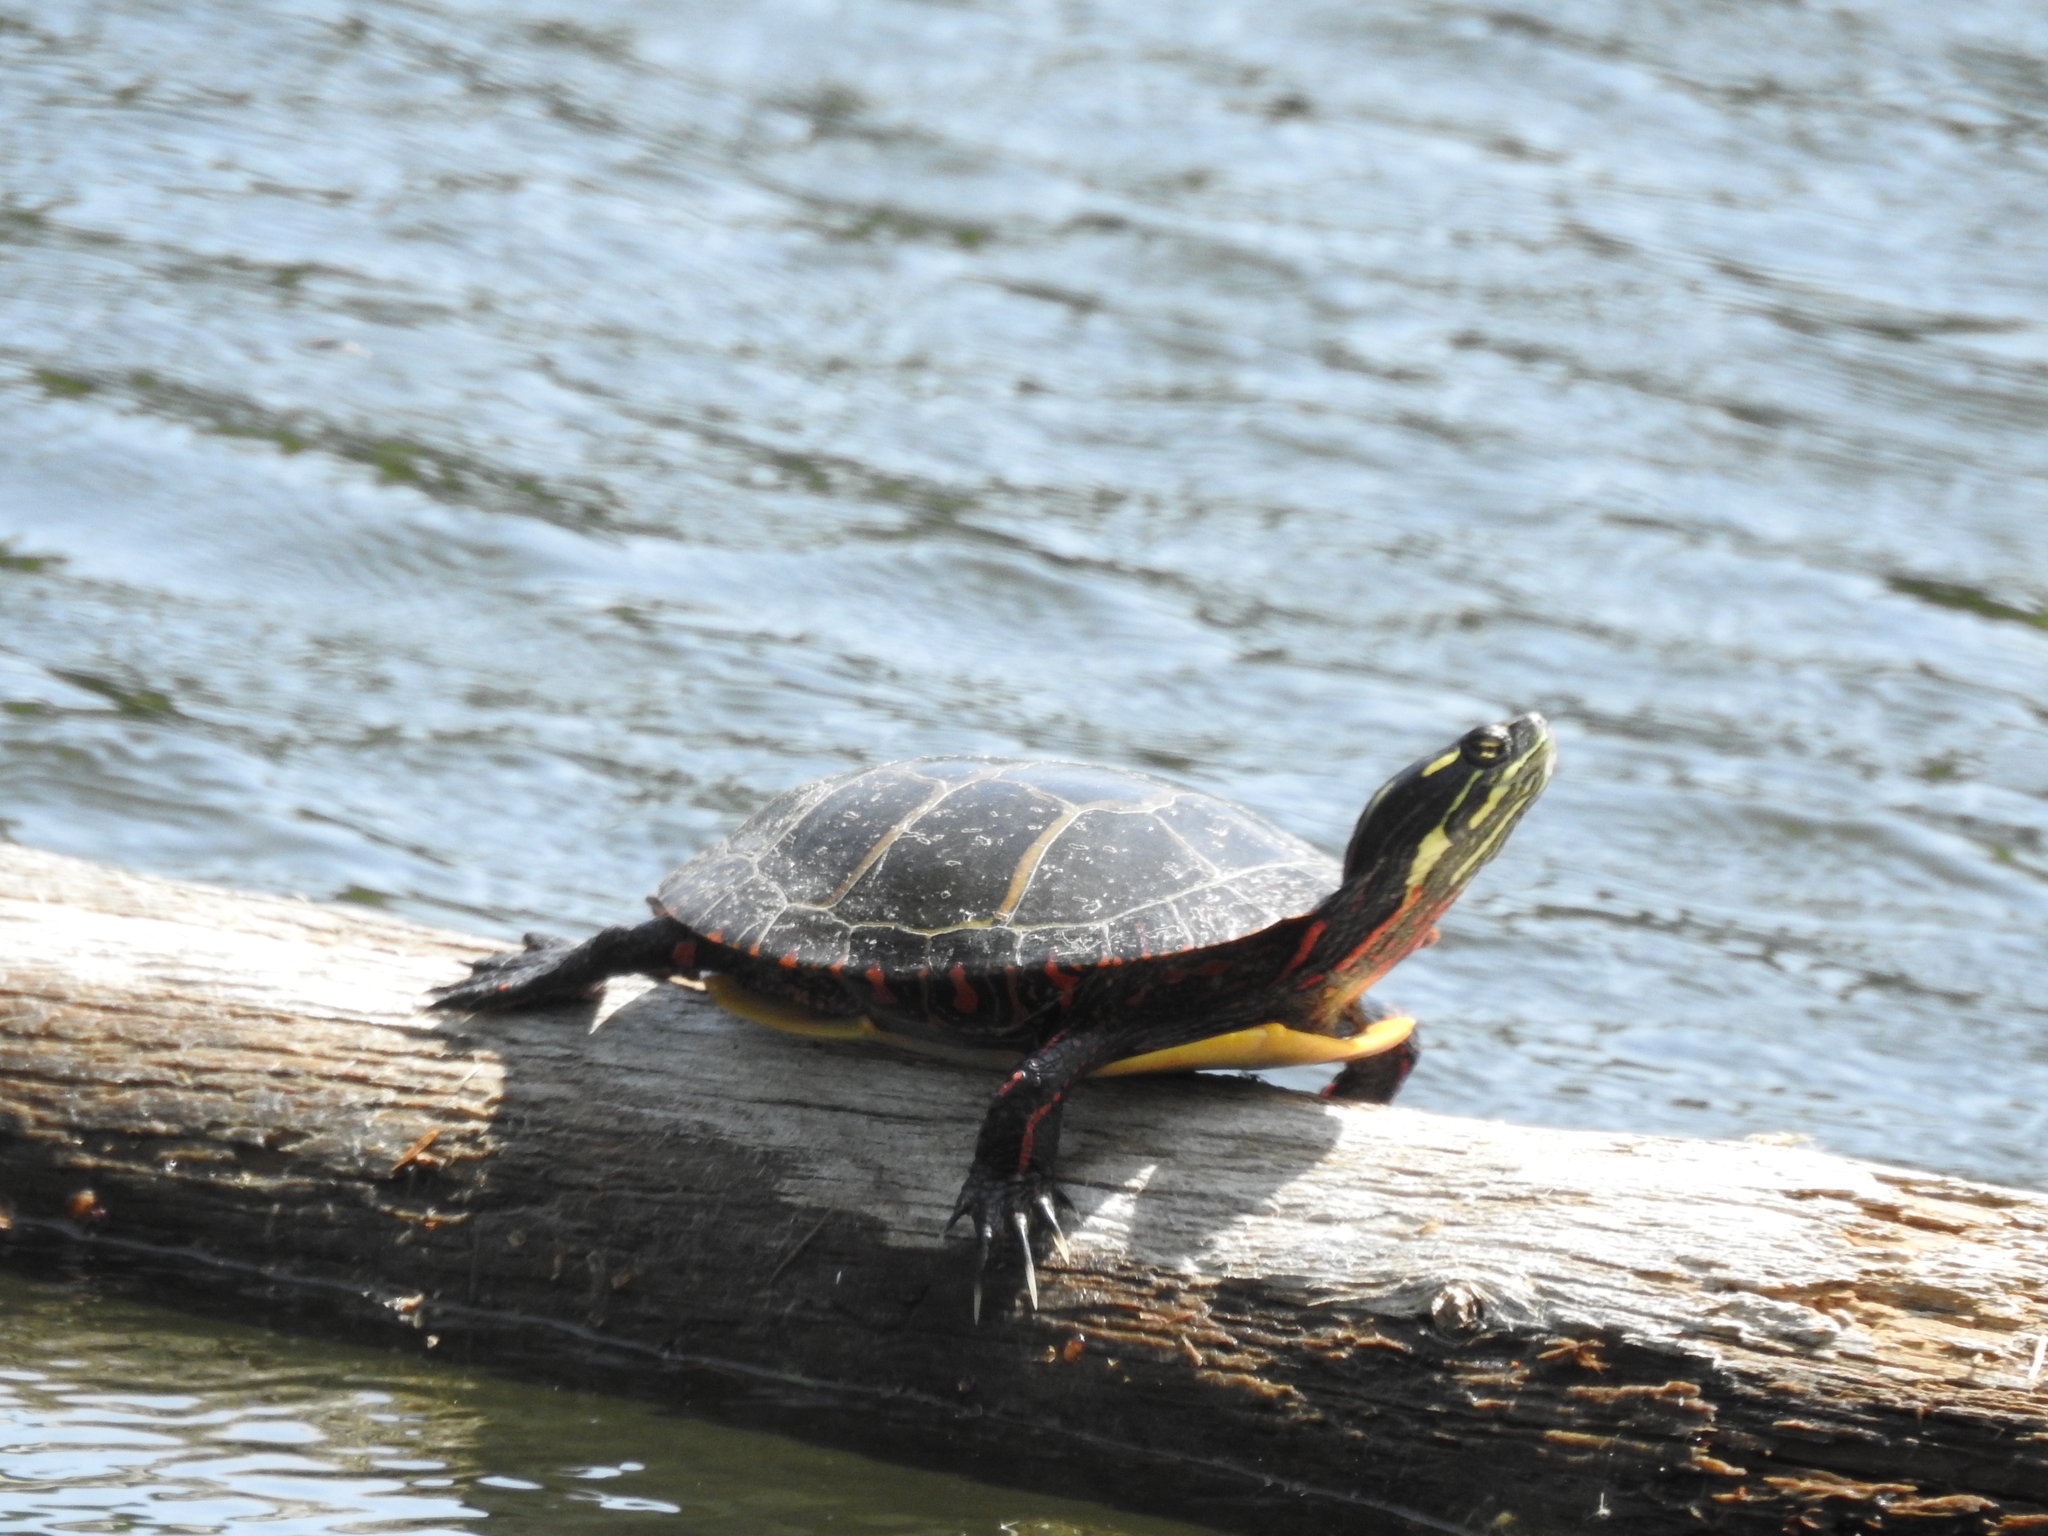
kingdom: Animalia
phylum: Chordata
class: Testudines
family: Emydidae
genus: Chrysemys
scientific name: Chrysemys picta
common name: Painted turtle
